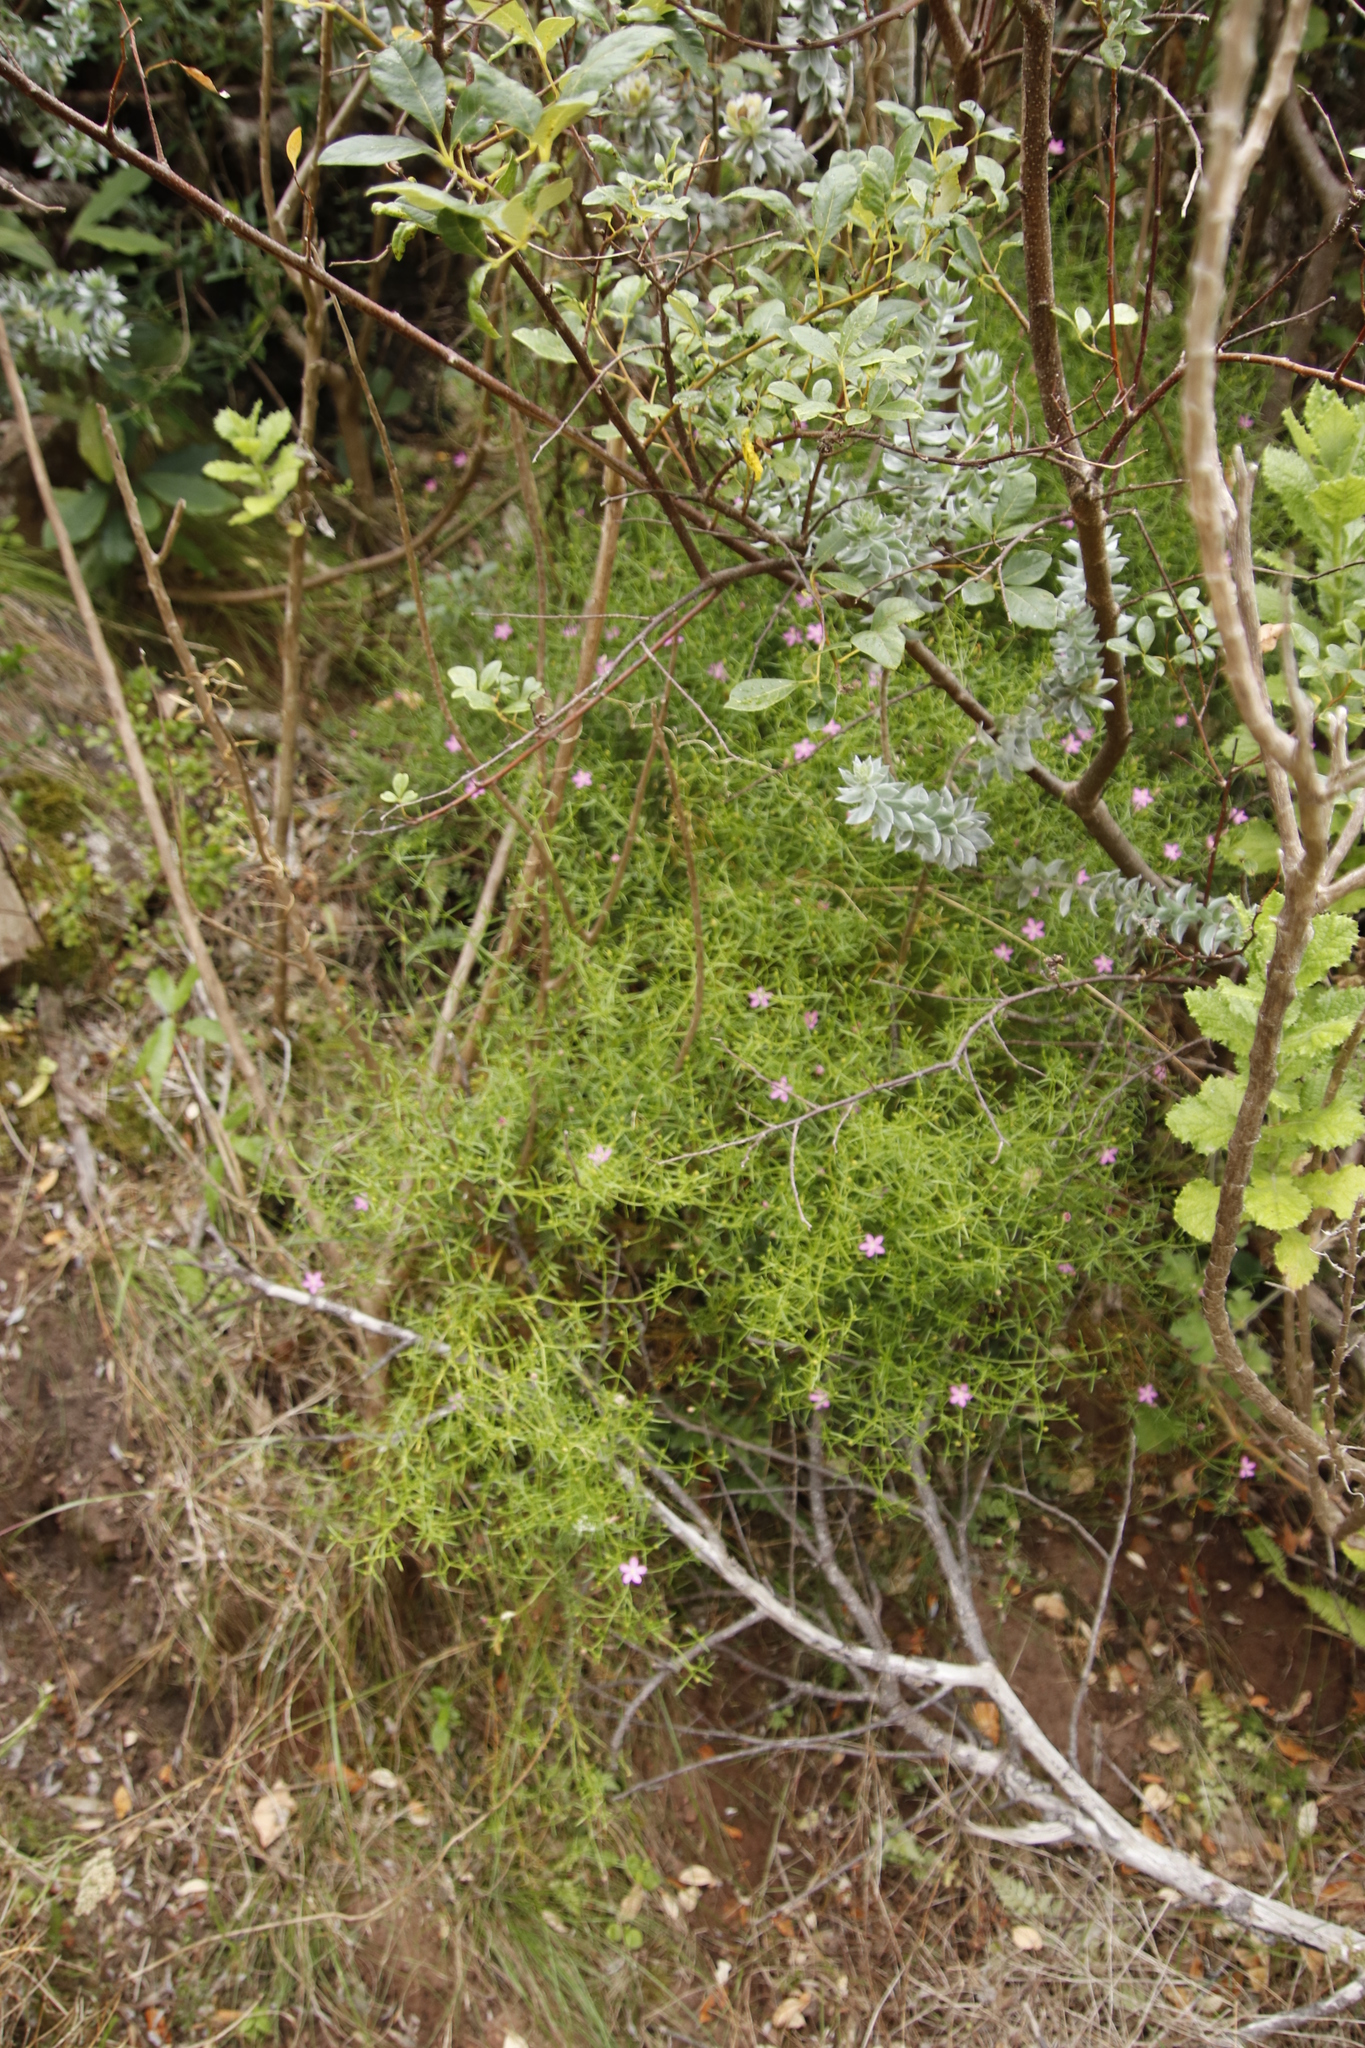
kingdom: Plantae
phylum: Tracheophyta
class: Magnoliopsida
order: Gentianales
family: Gentianaceae
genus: Chironia
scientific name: Chironia baccifera
